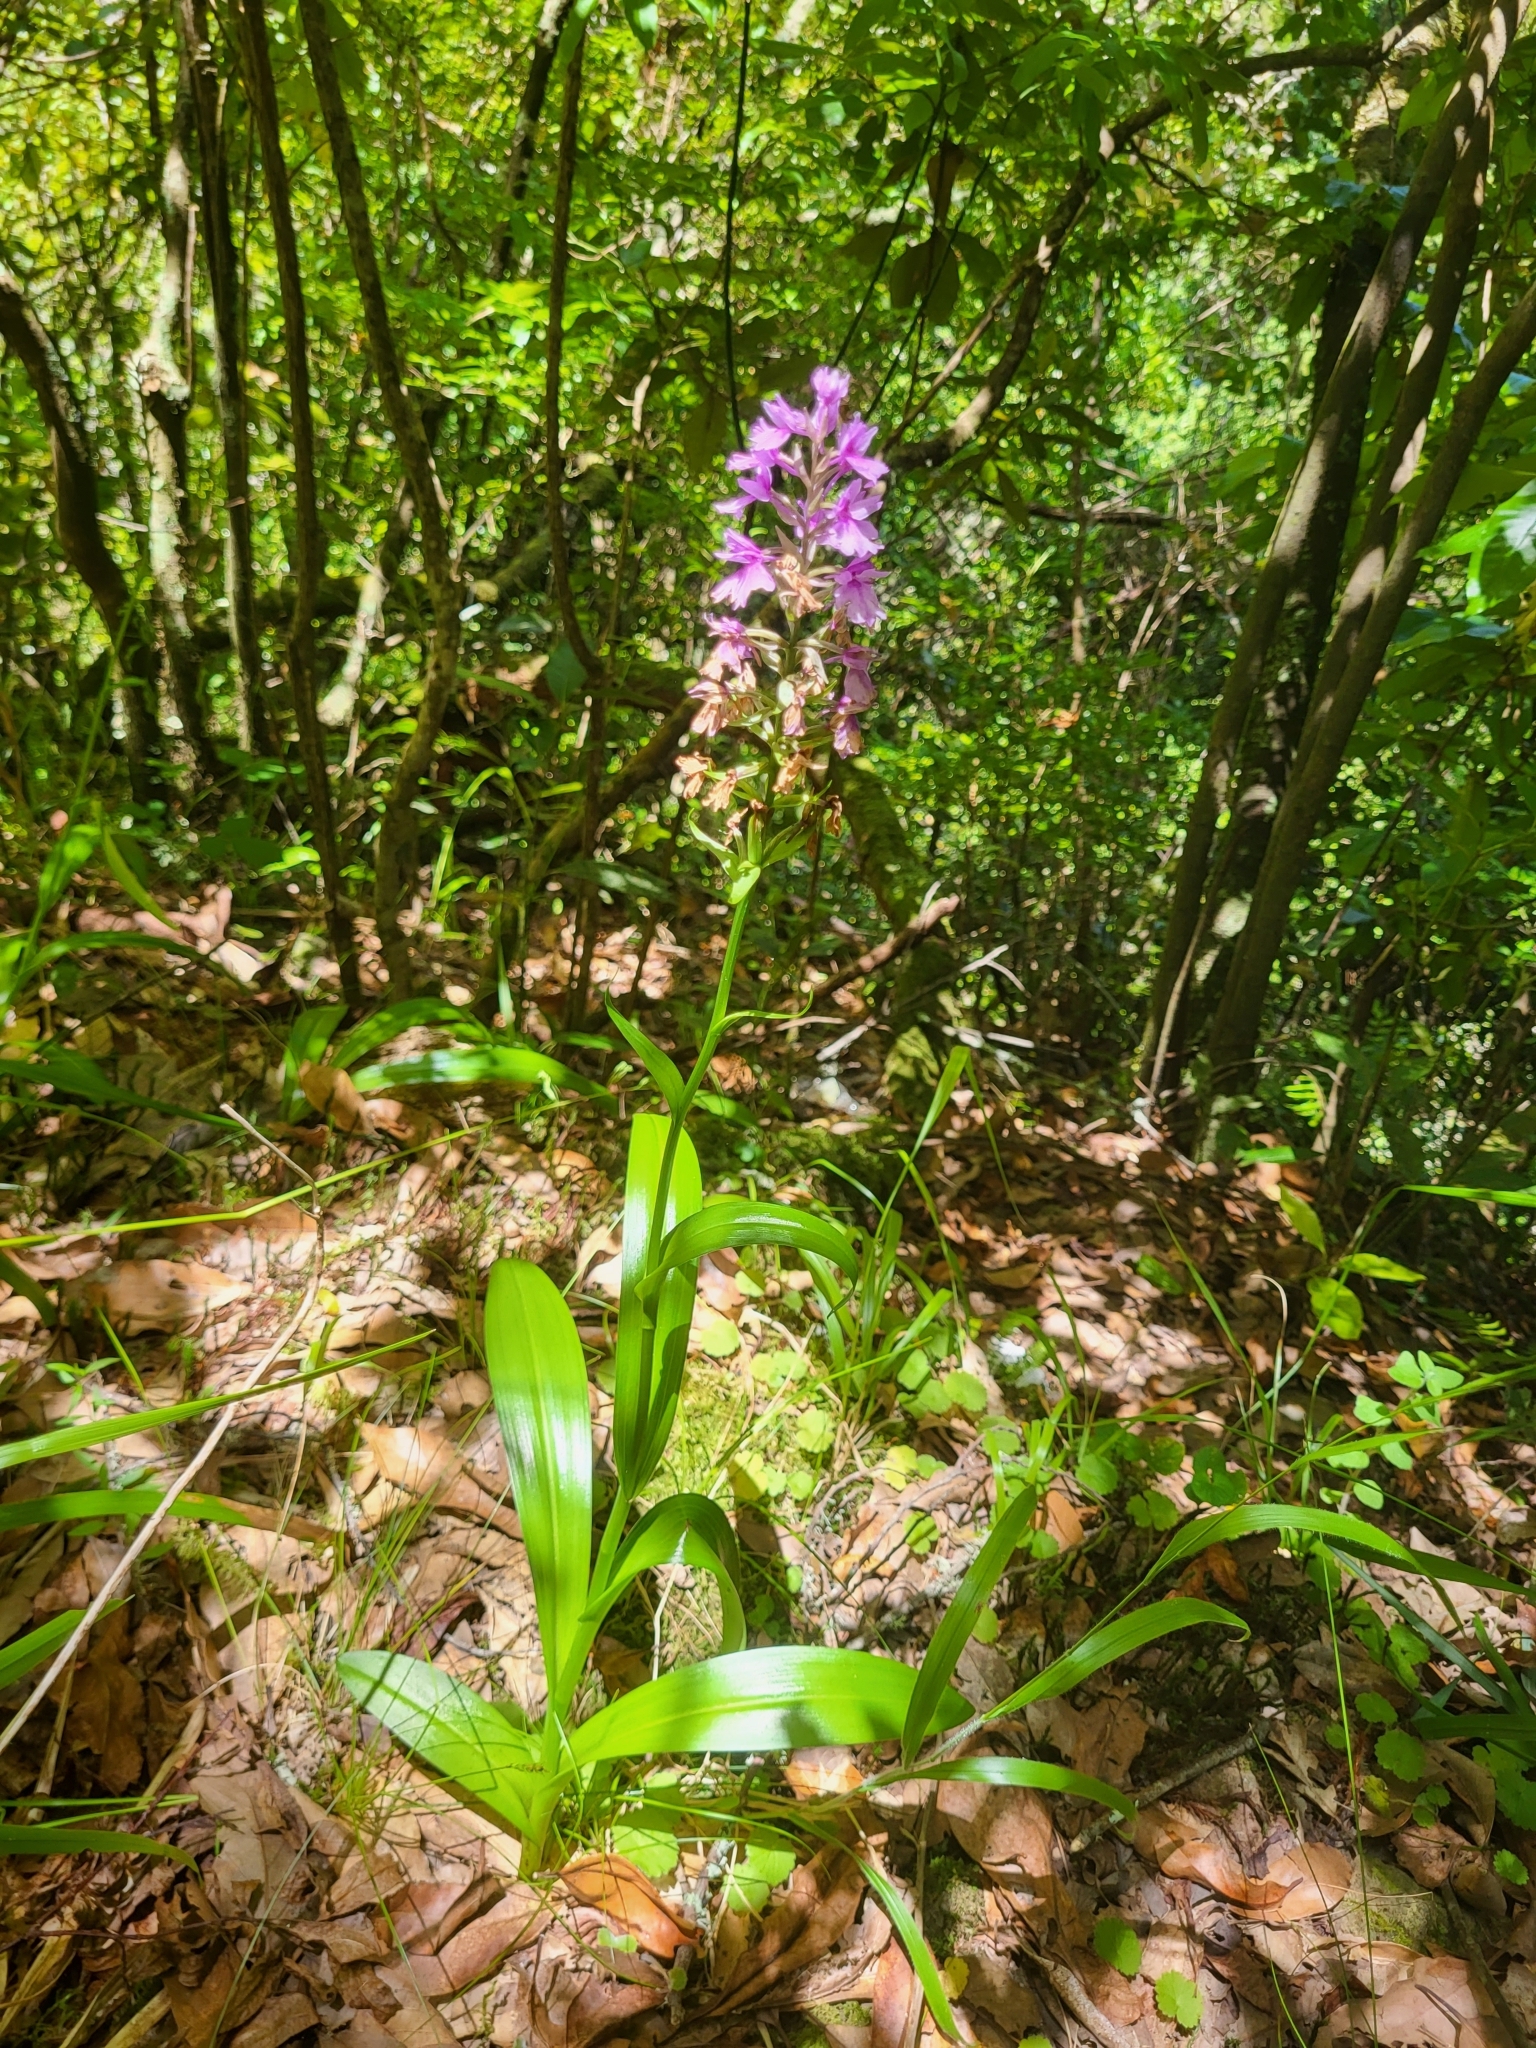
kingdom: Plantae
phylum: Tracheophyta
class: Liliopsida
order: Asparagales
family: Orchidaceae
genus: Dactylorhiza
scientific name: Dactylorhiza foliosa
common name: Richly-leaved dactylorhiza
